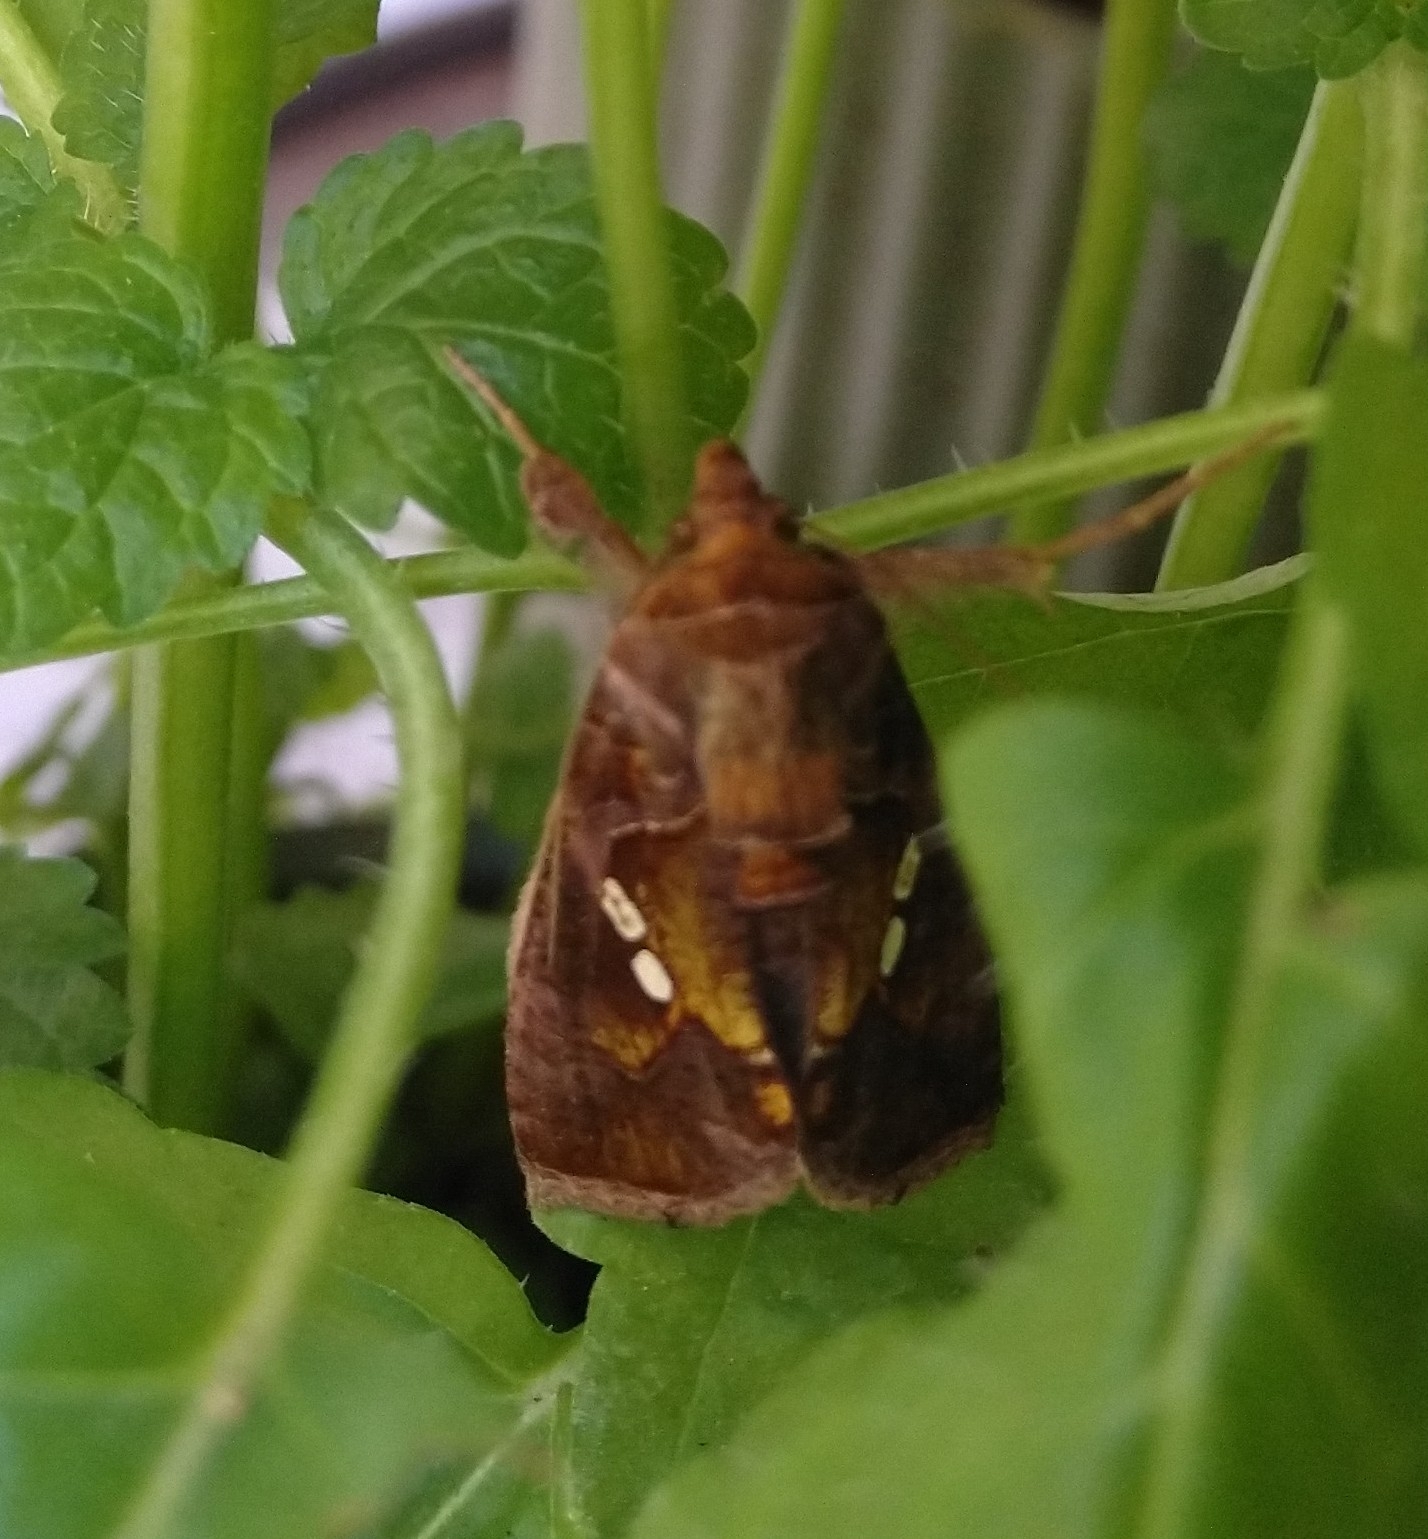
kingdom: Animalia
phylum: Arthropoda
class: Insecta
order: Lepidoptera
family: Noctuidae
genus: Chrysodeixis
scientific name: Chrysodeixis chalcites
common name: Golden twin-spot
